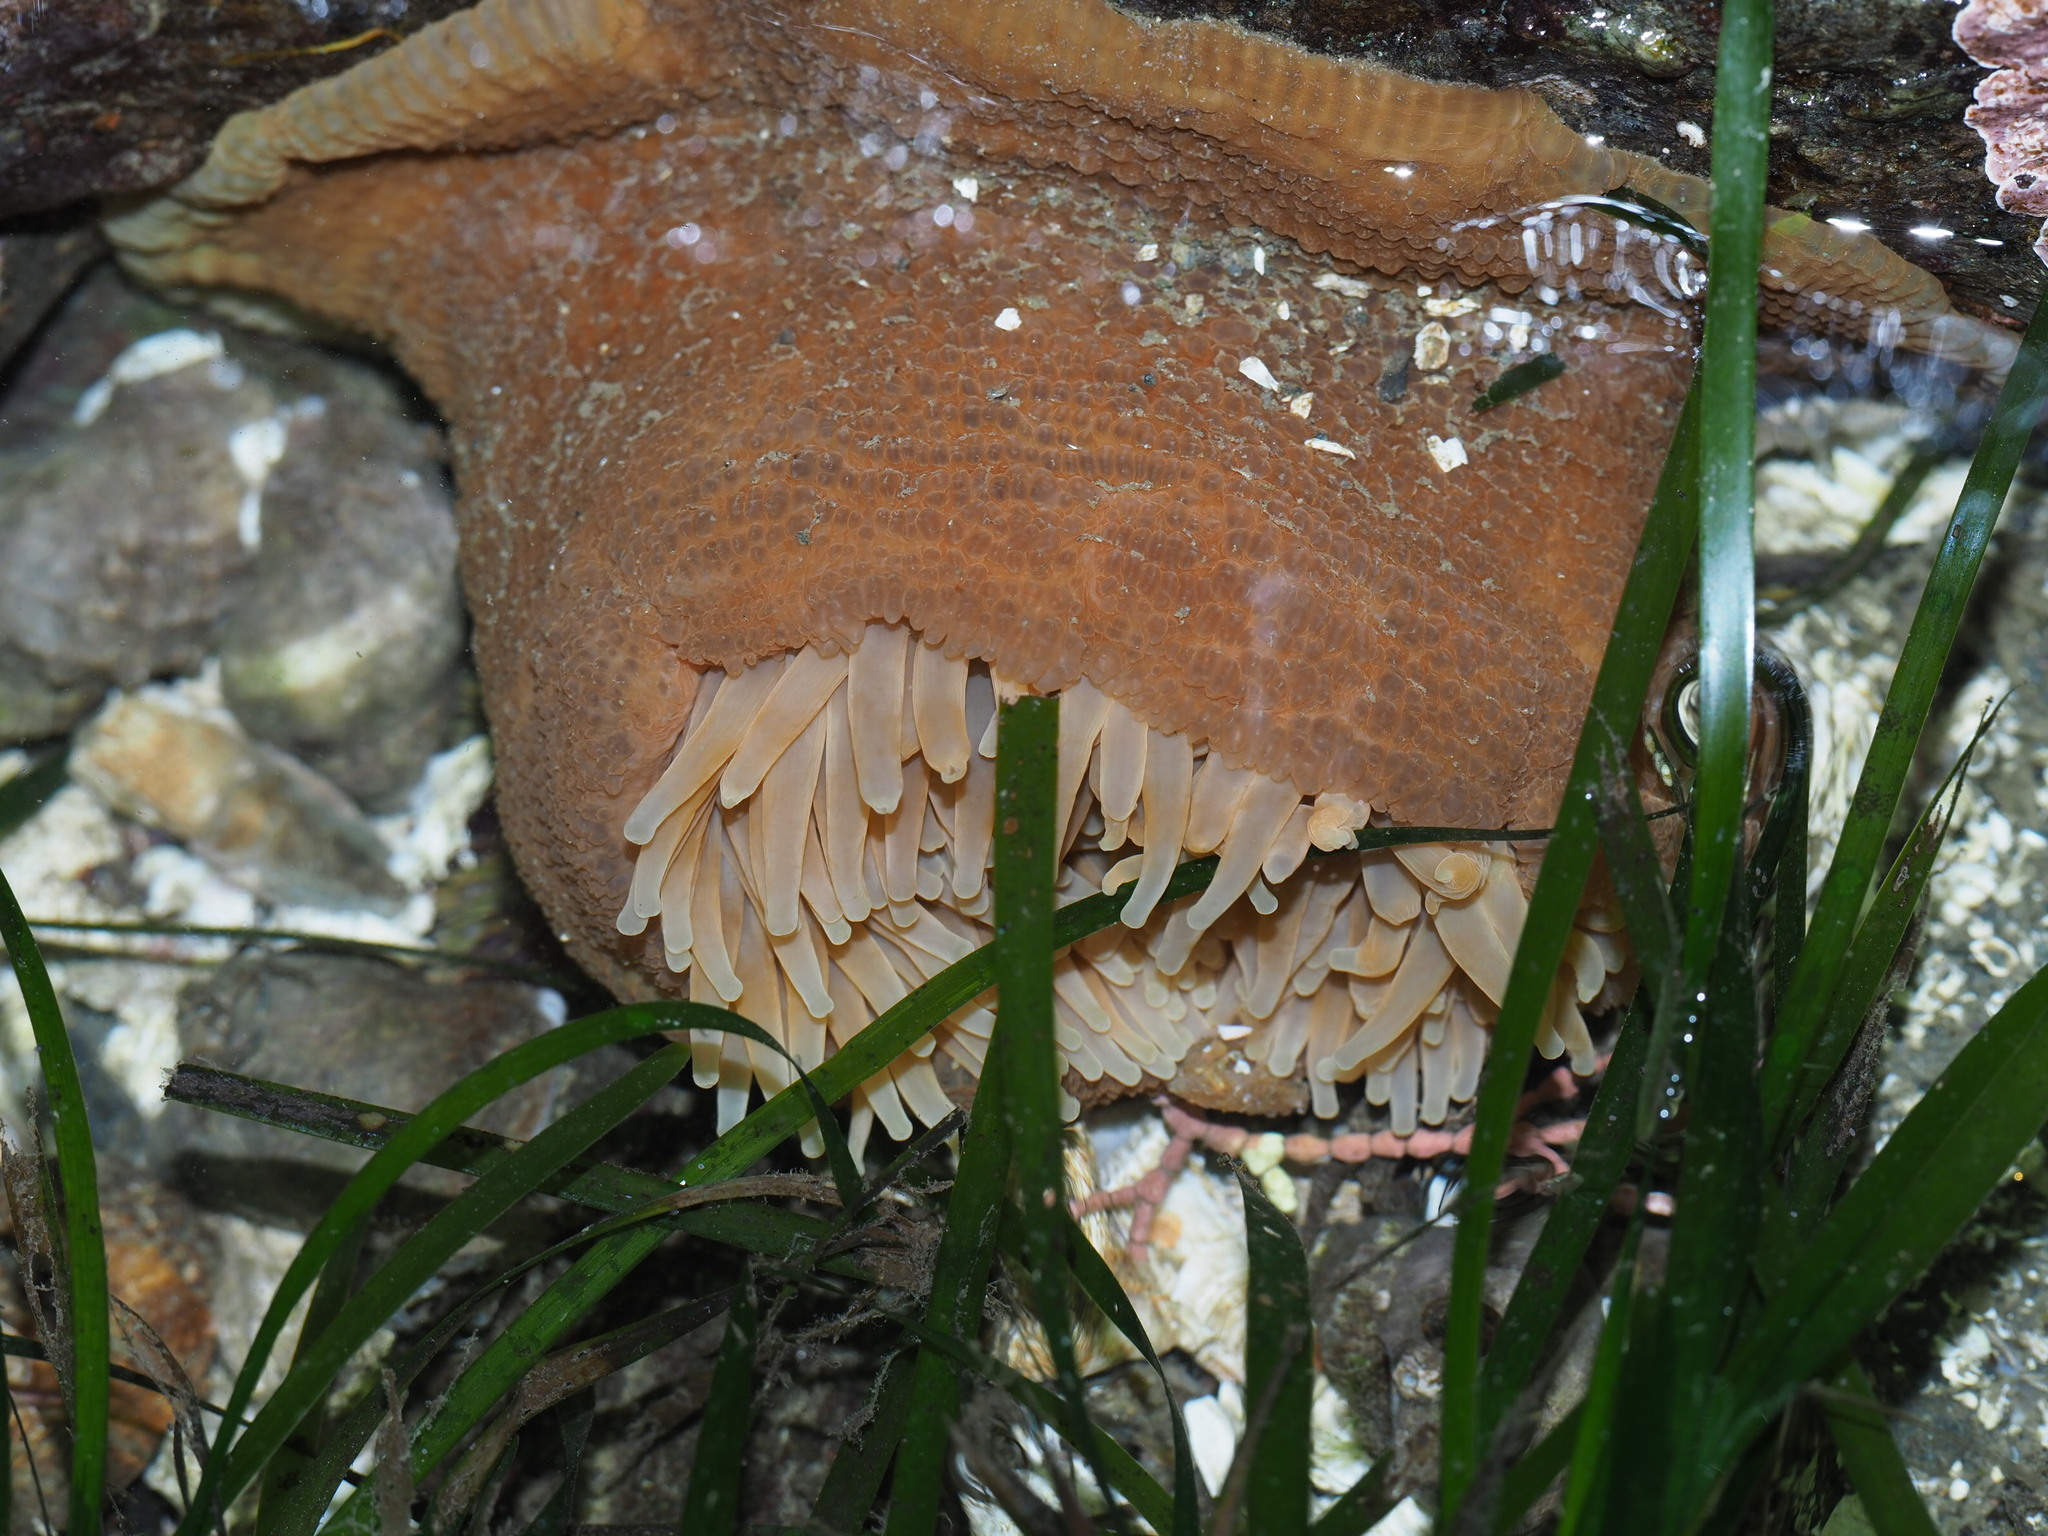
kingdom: Animalia
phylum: Cnidaria
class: Anthozoa
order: Actiniaria
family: Actiniidae
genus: Urticina
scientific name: Urticina grebelnyi
